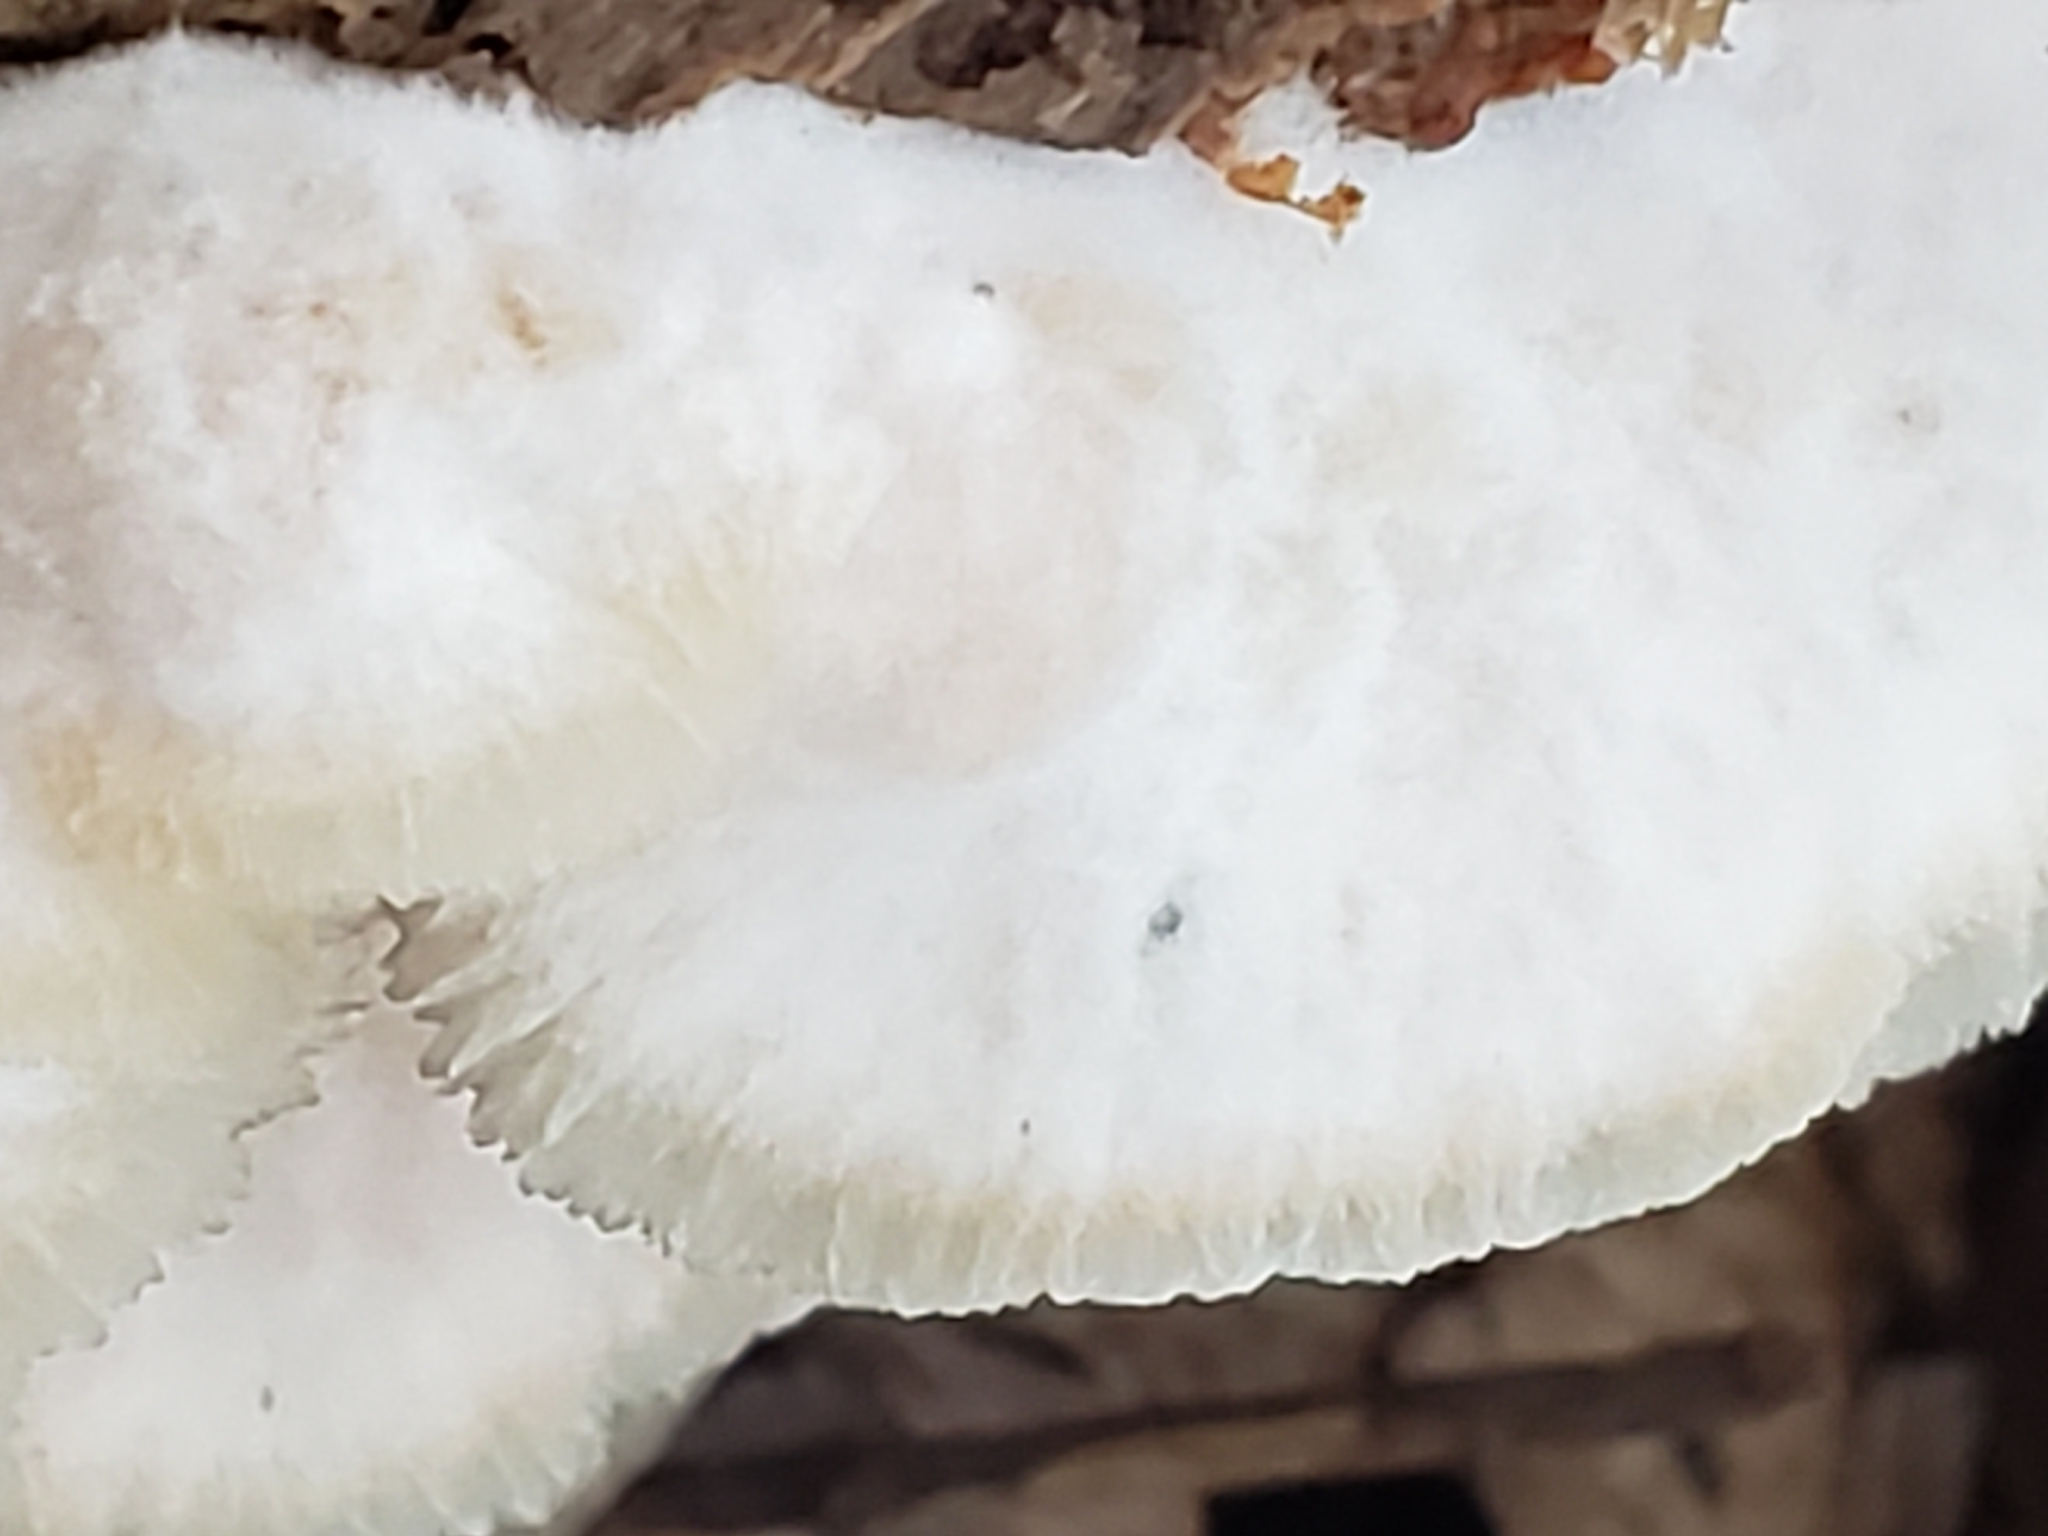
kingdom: Fungi
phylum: Basidiomycota
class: Agaricomycetes
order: Polyporales
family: Meruliaceae
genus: Phlebia
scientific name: Phlebia tremellosa
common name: Jelly rot
